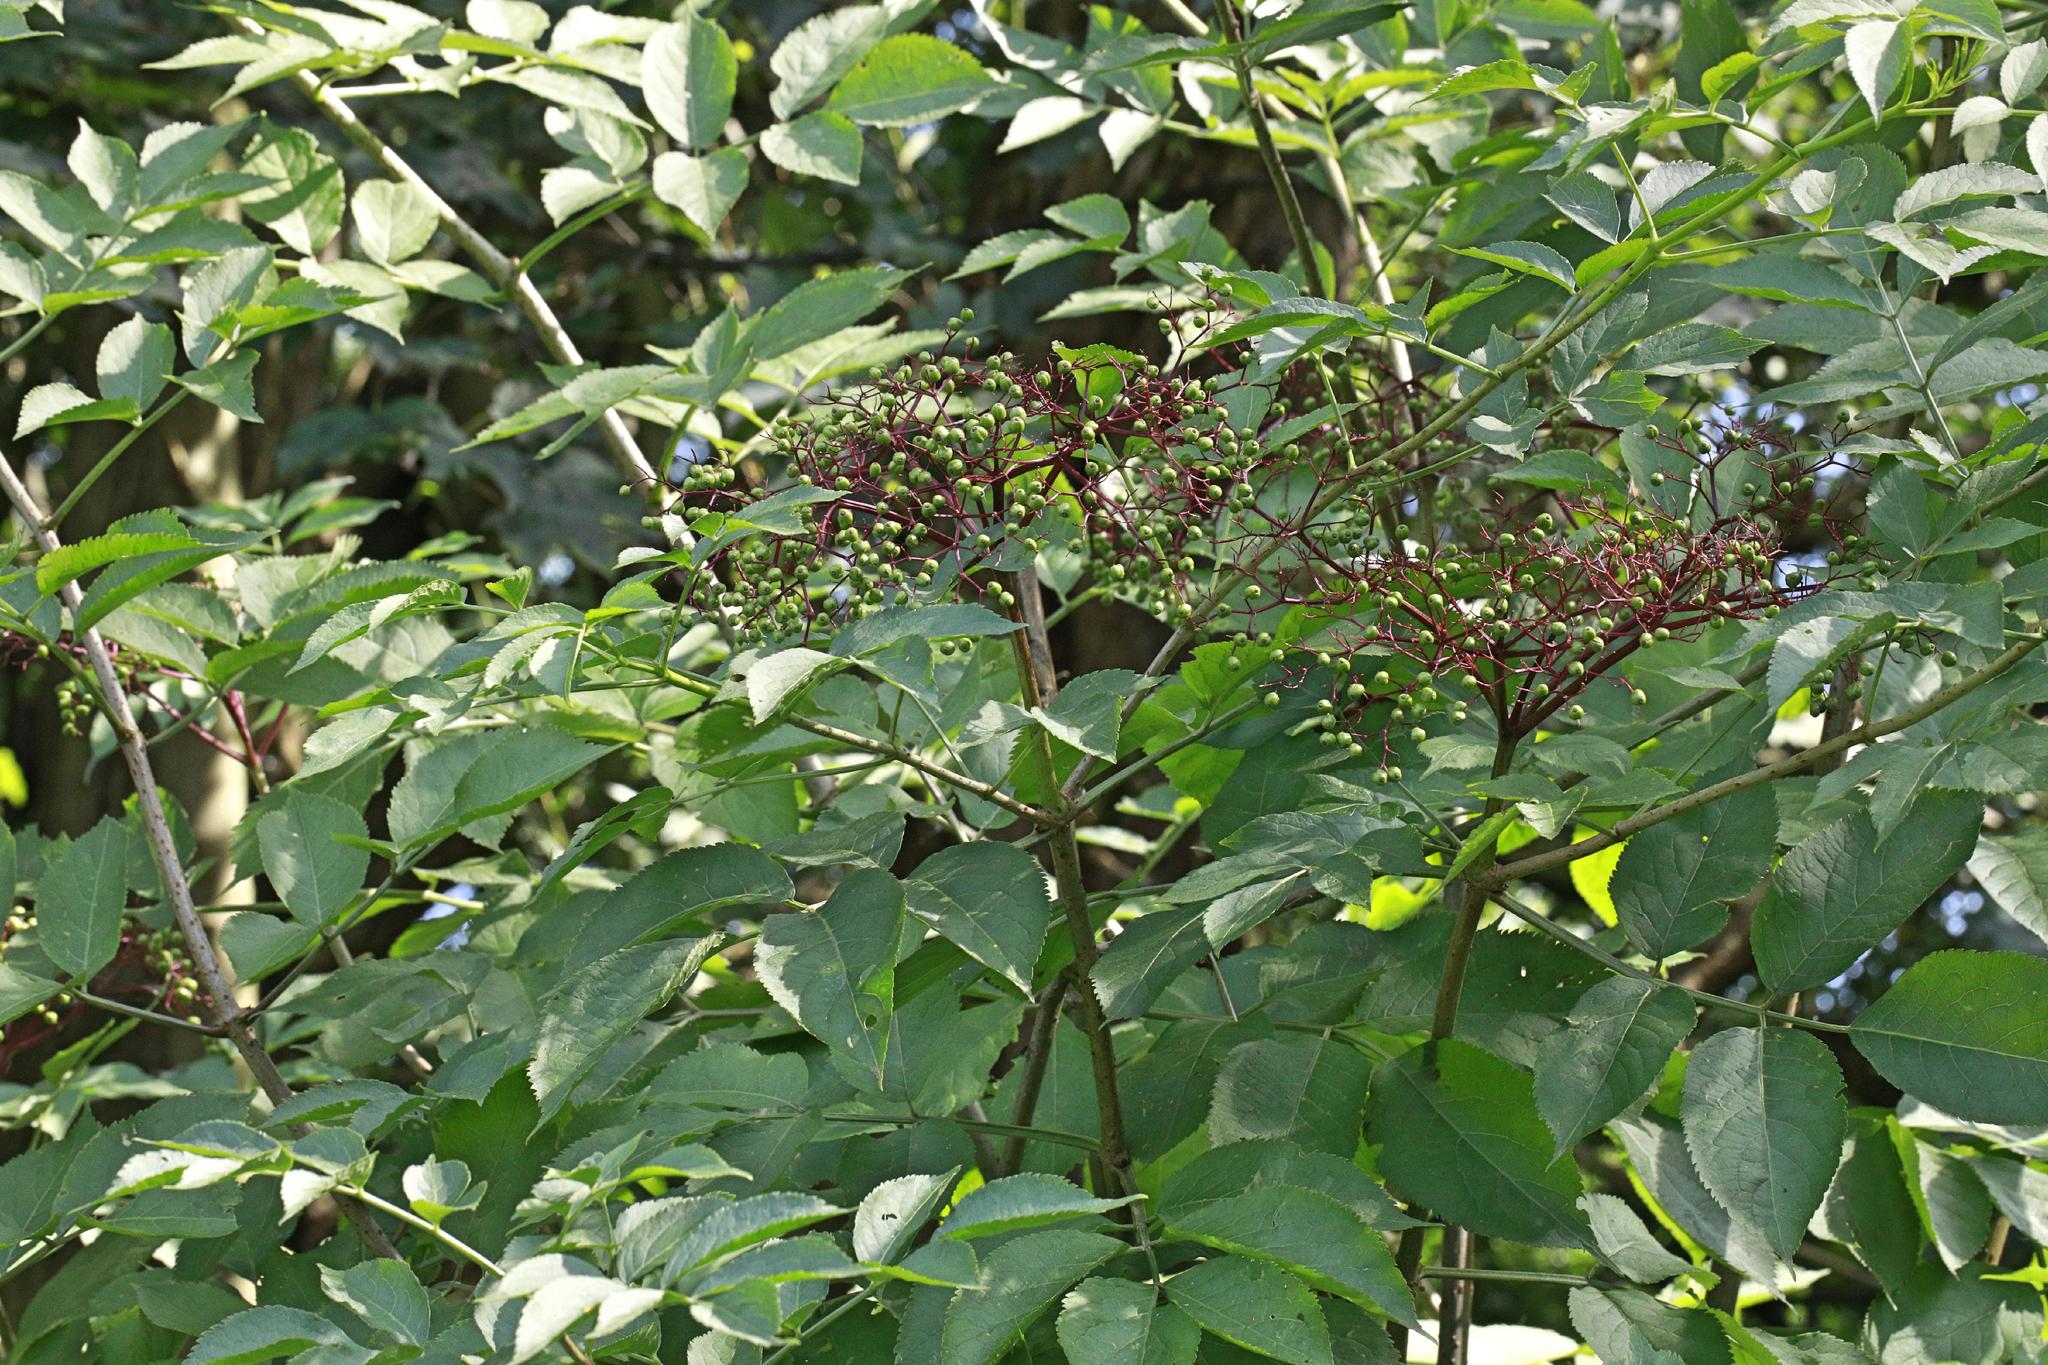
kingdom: Plantae
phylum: Tracheophyta
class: Magnoliopsida
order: Dipsacales
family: Viburnaceae
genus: Sambucus
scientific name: Sambucus nigra
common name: Elder
